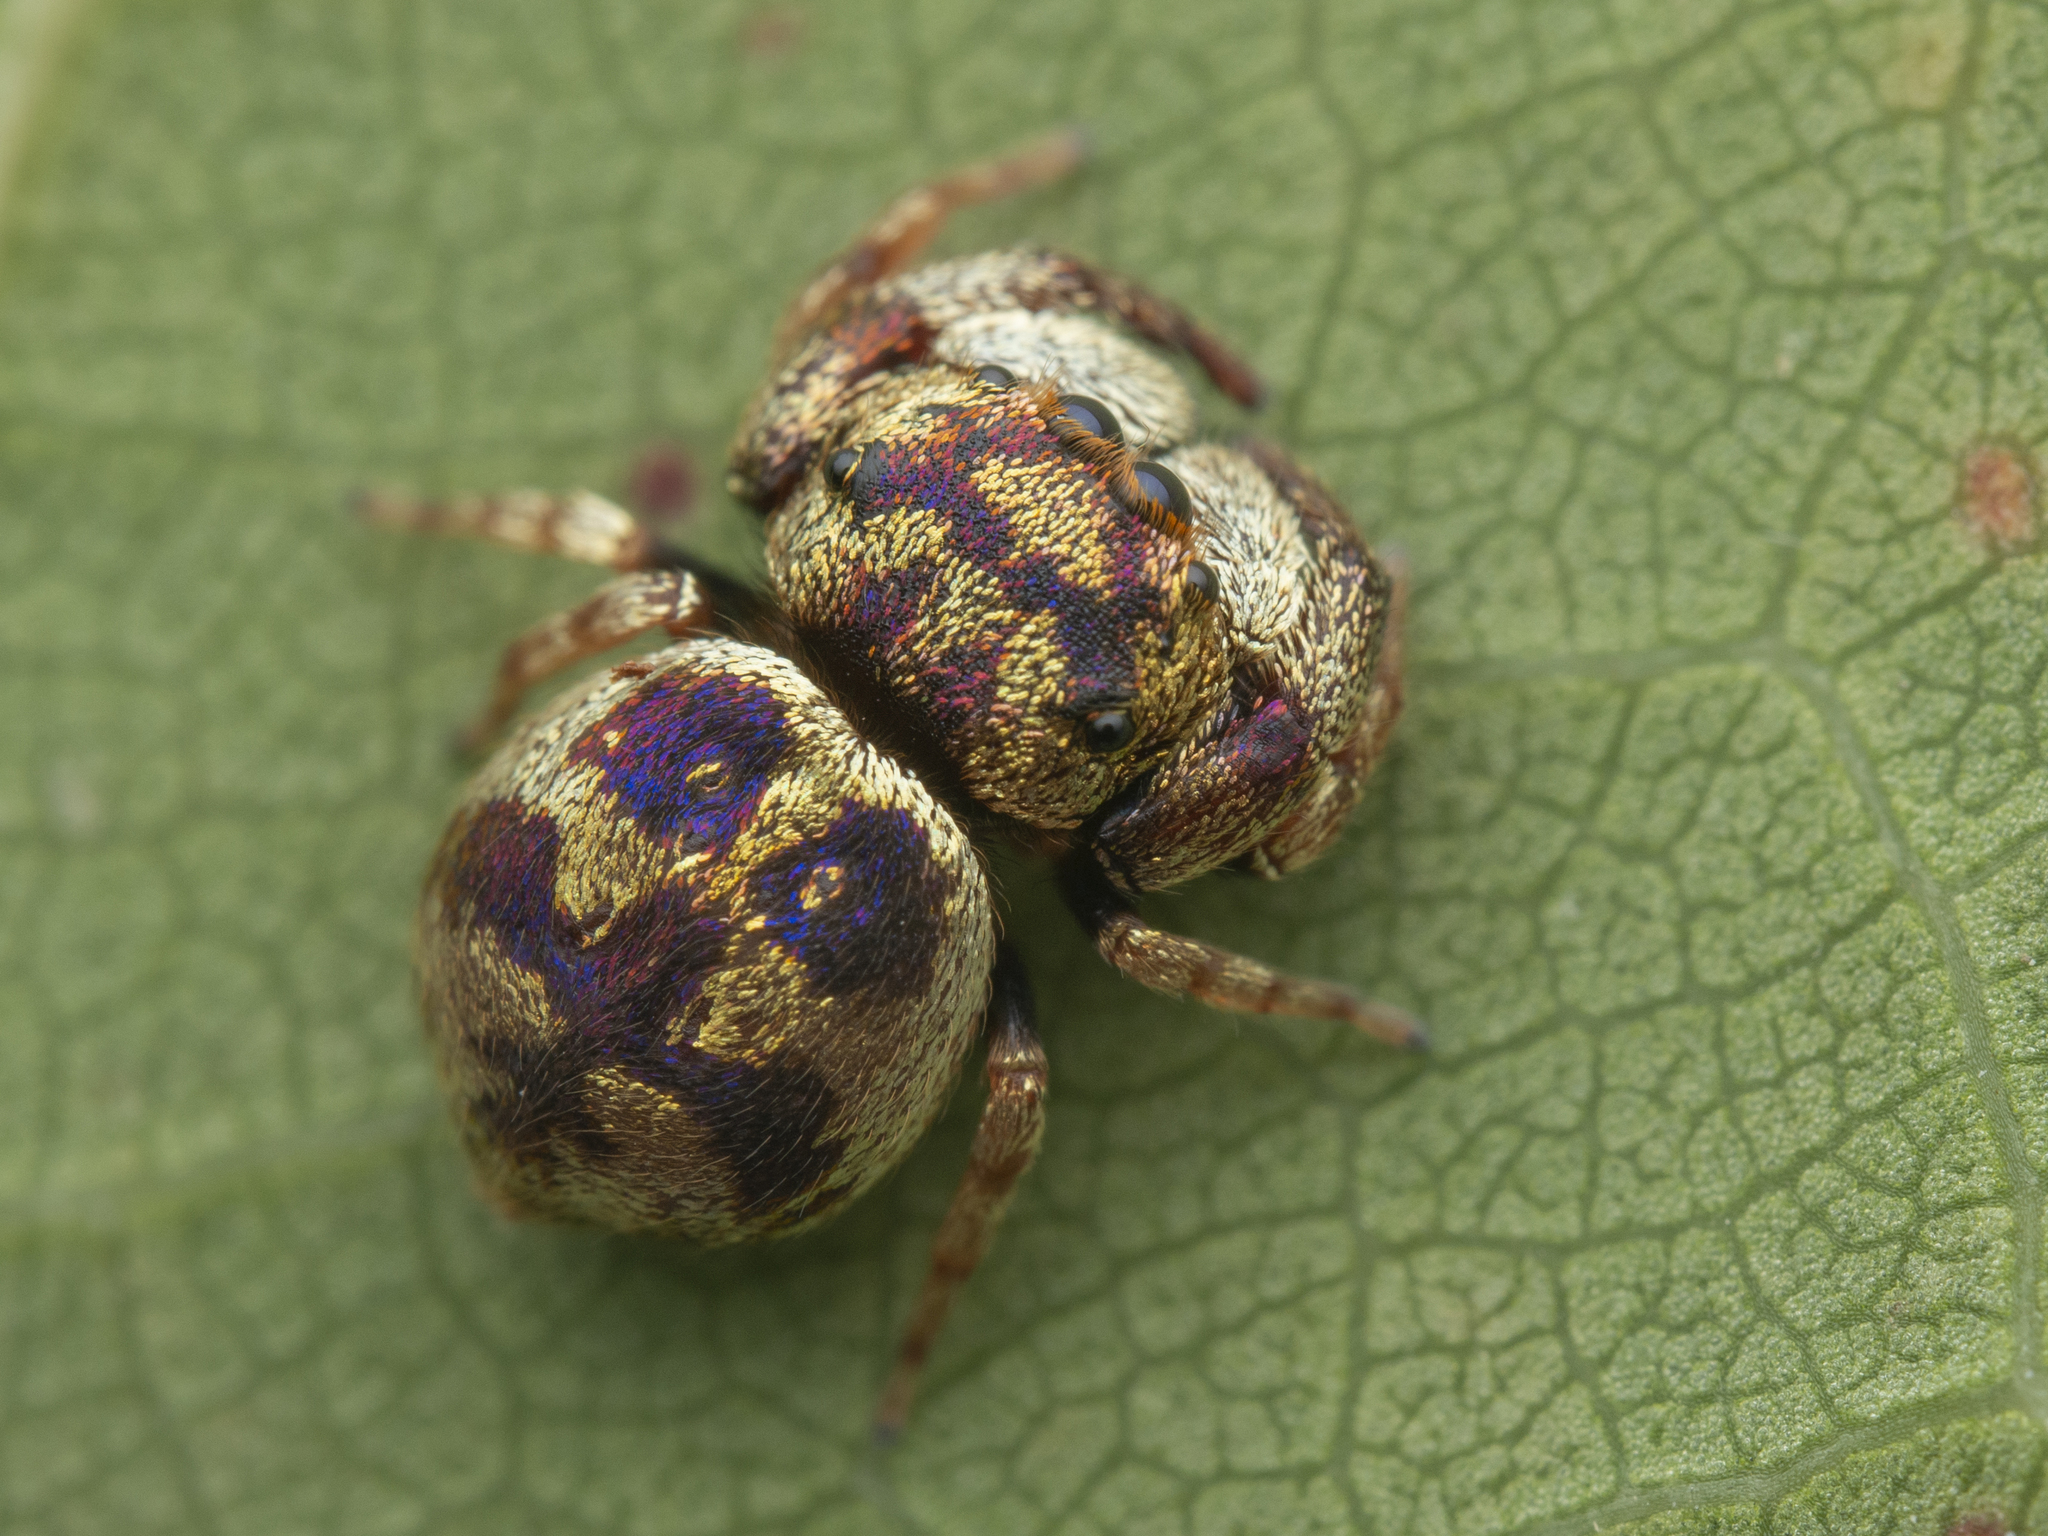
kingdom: Animalia
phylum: Arthropoda
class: Arachnida
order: Araneae
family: Salticidae
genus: Irura
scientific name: Irura bidenticulata
